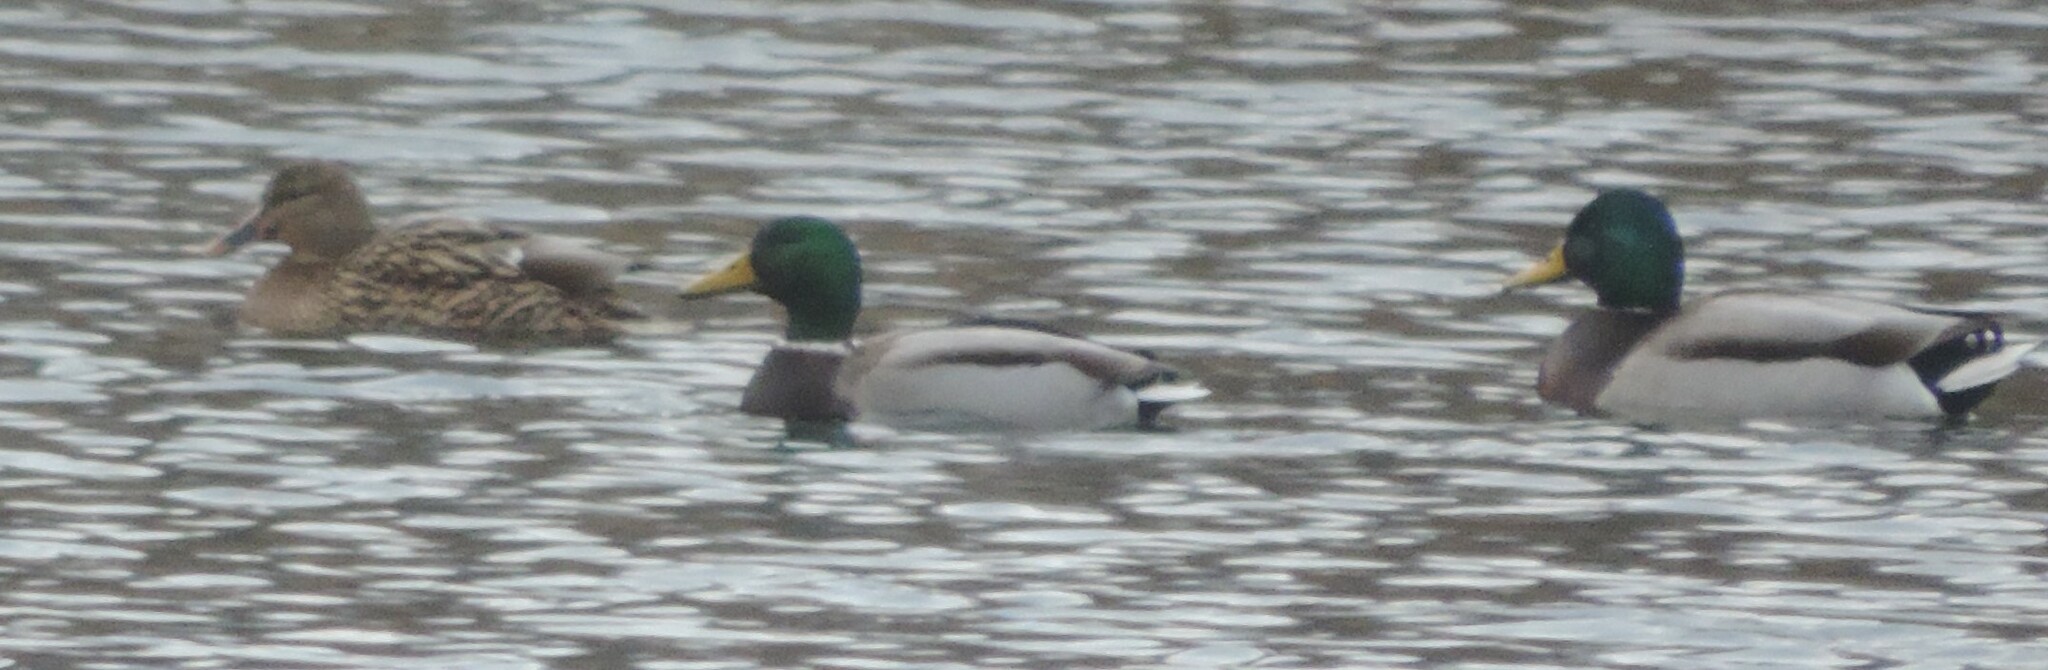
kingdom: Animalia
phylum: Chordata
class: Aves
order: Anseriformes
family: Anatidae
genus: Anas
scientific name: Anas platyrhynchos
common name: Mallard
